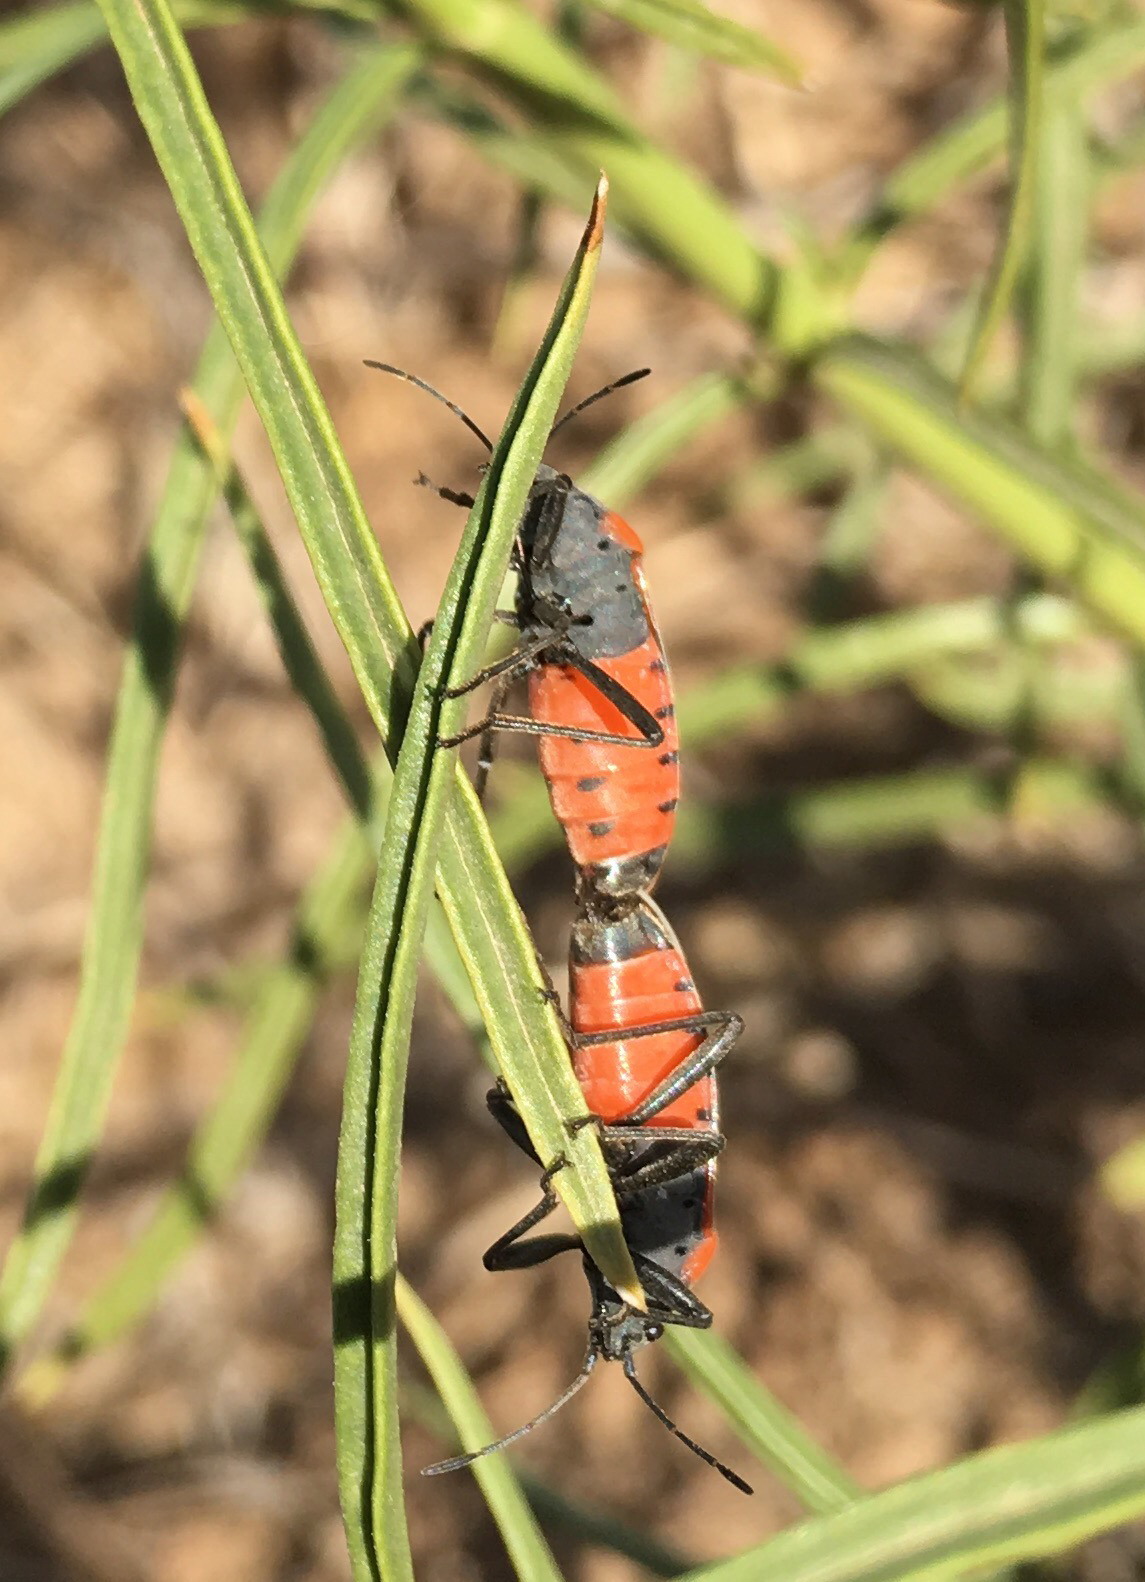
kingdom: Animalia
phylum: Arthropoda
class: Insecta
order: Hemiptera
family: Lygaeidae
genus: Lygaeus
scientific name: Lygaeus kalmii
